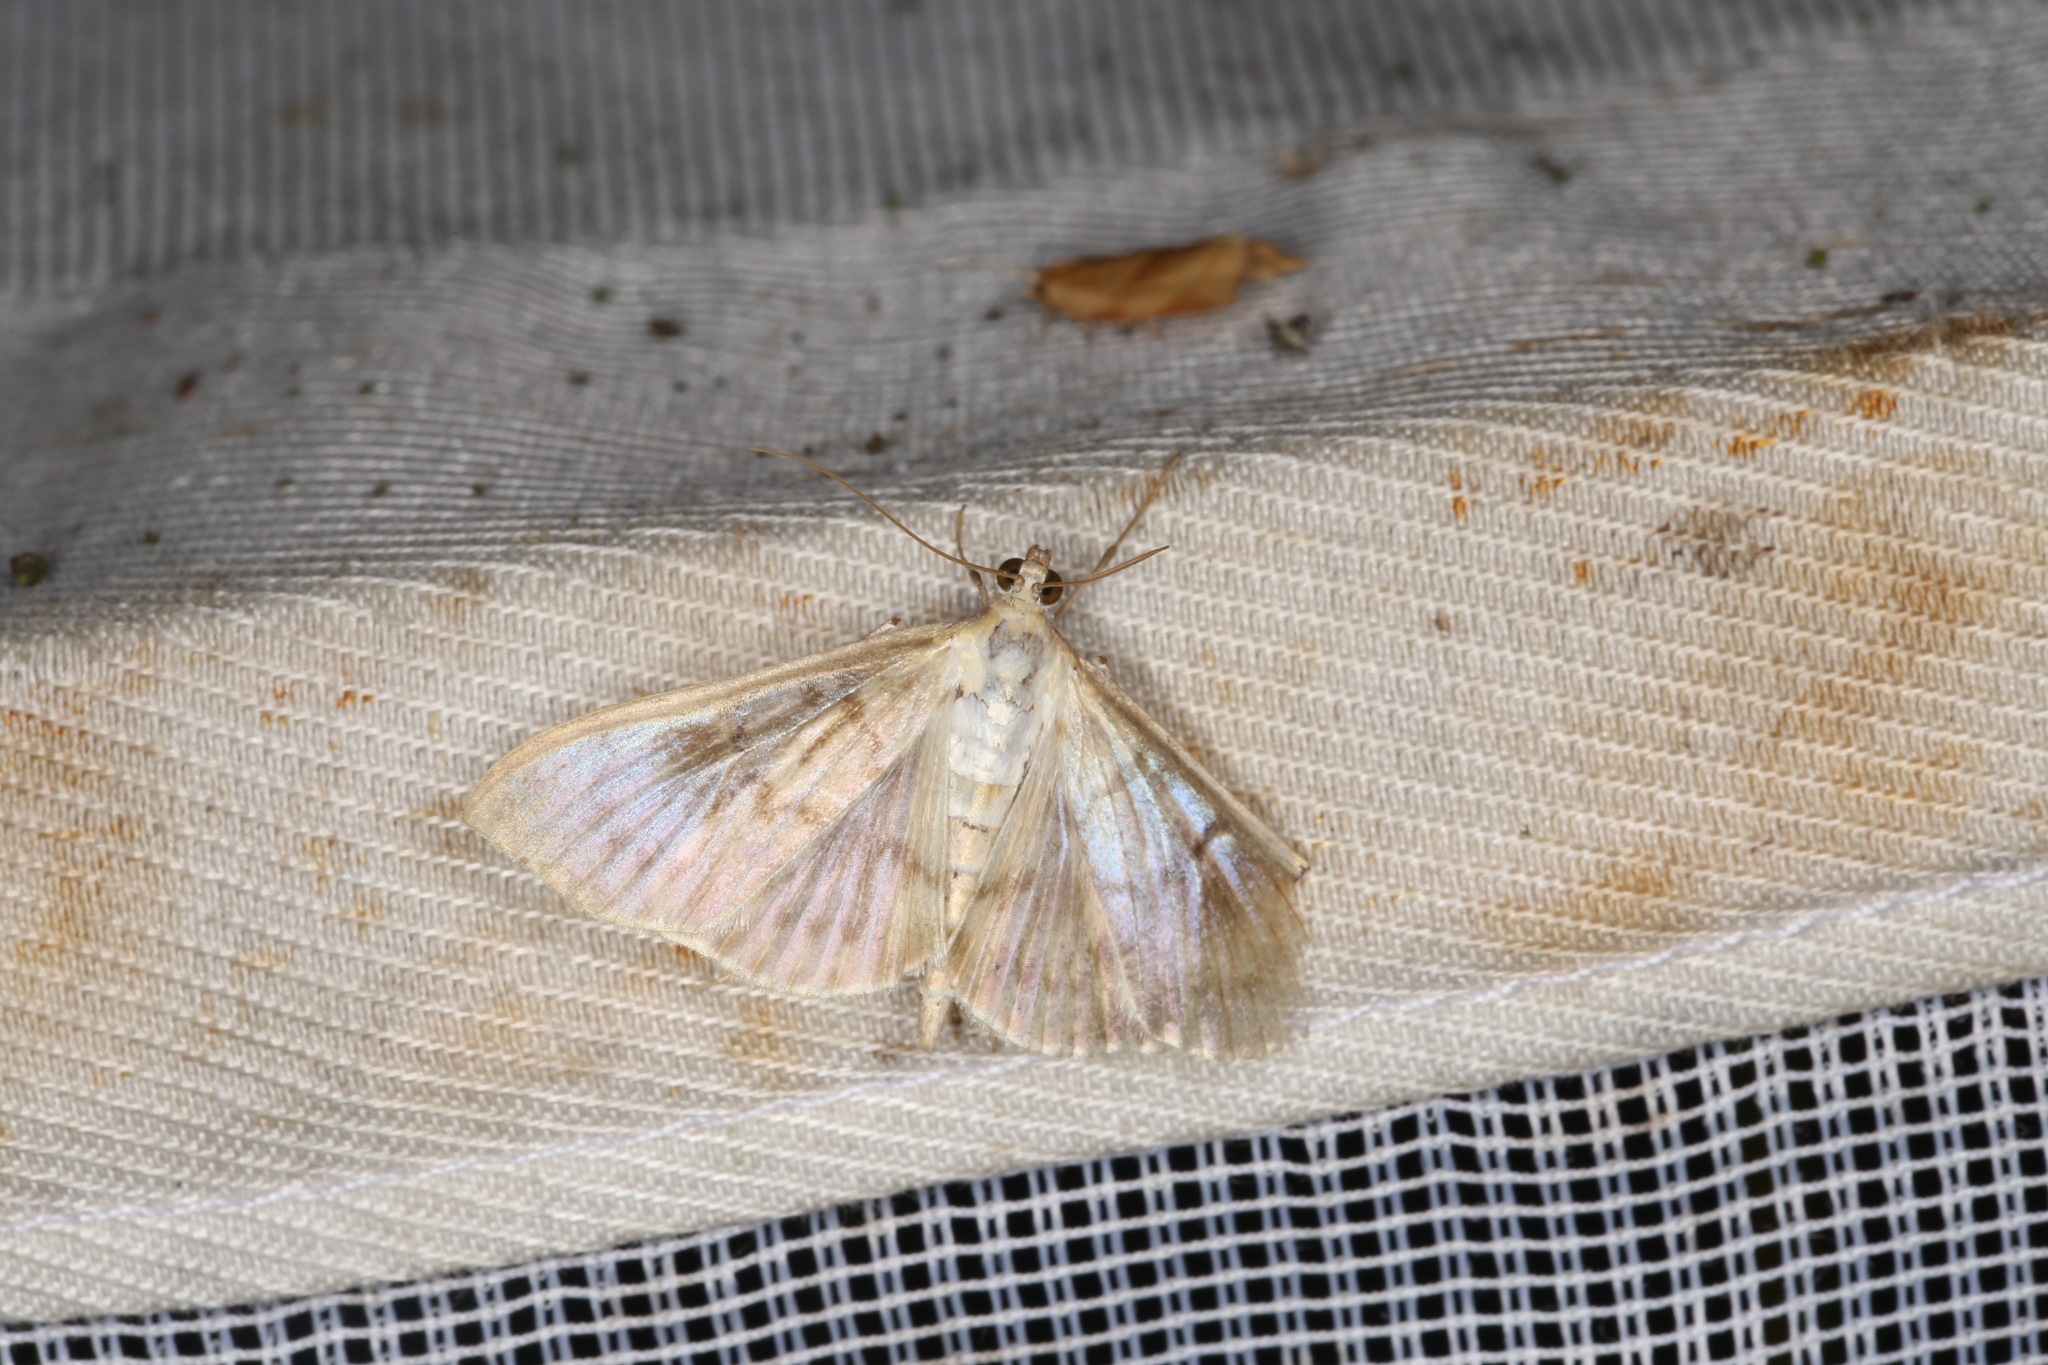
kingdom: Animalia
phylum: Arthropoda
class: Insecta
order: Lepidoptera
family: Crambidae
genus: Patania
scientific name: Patania ruralis
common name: Mother of pearl
